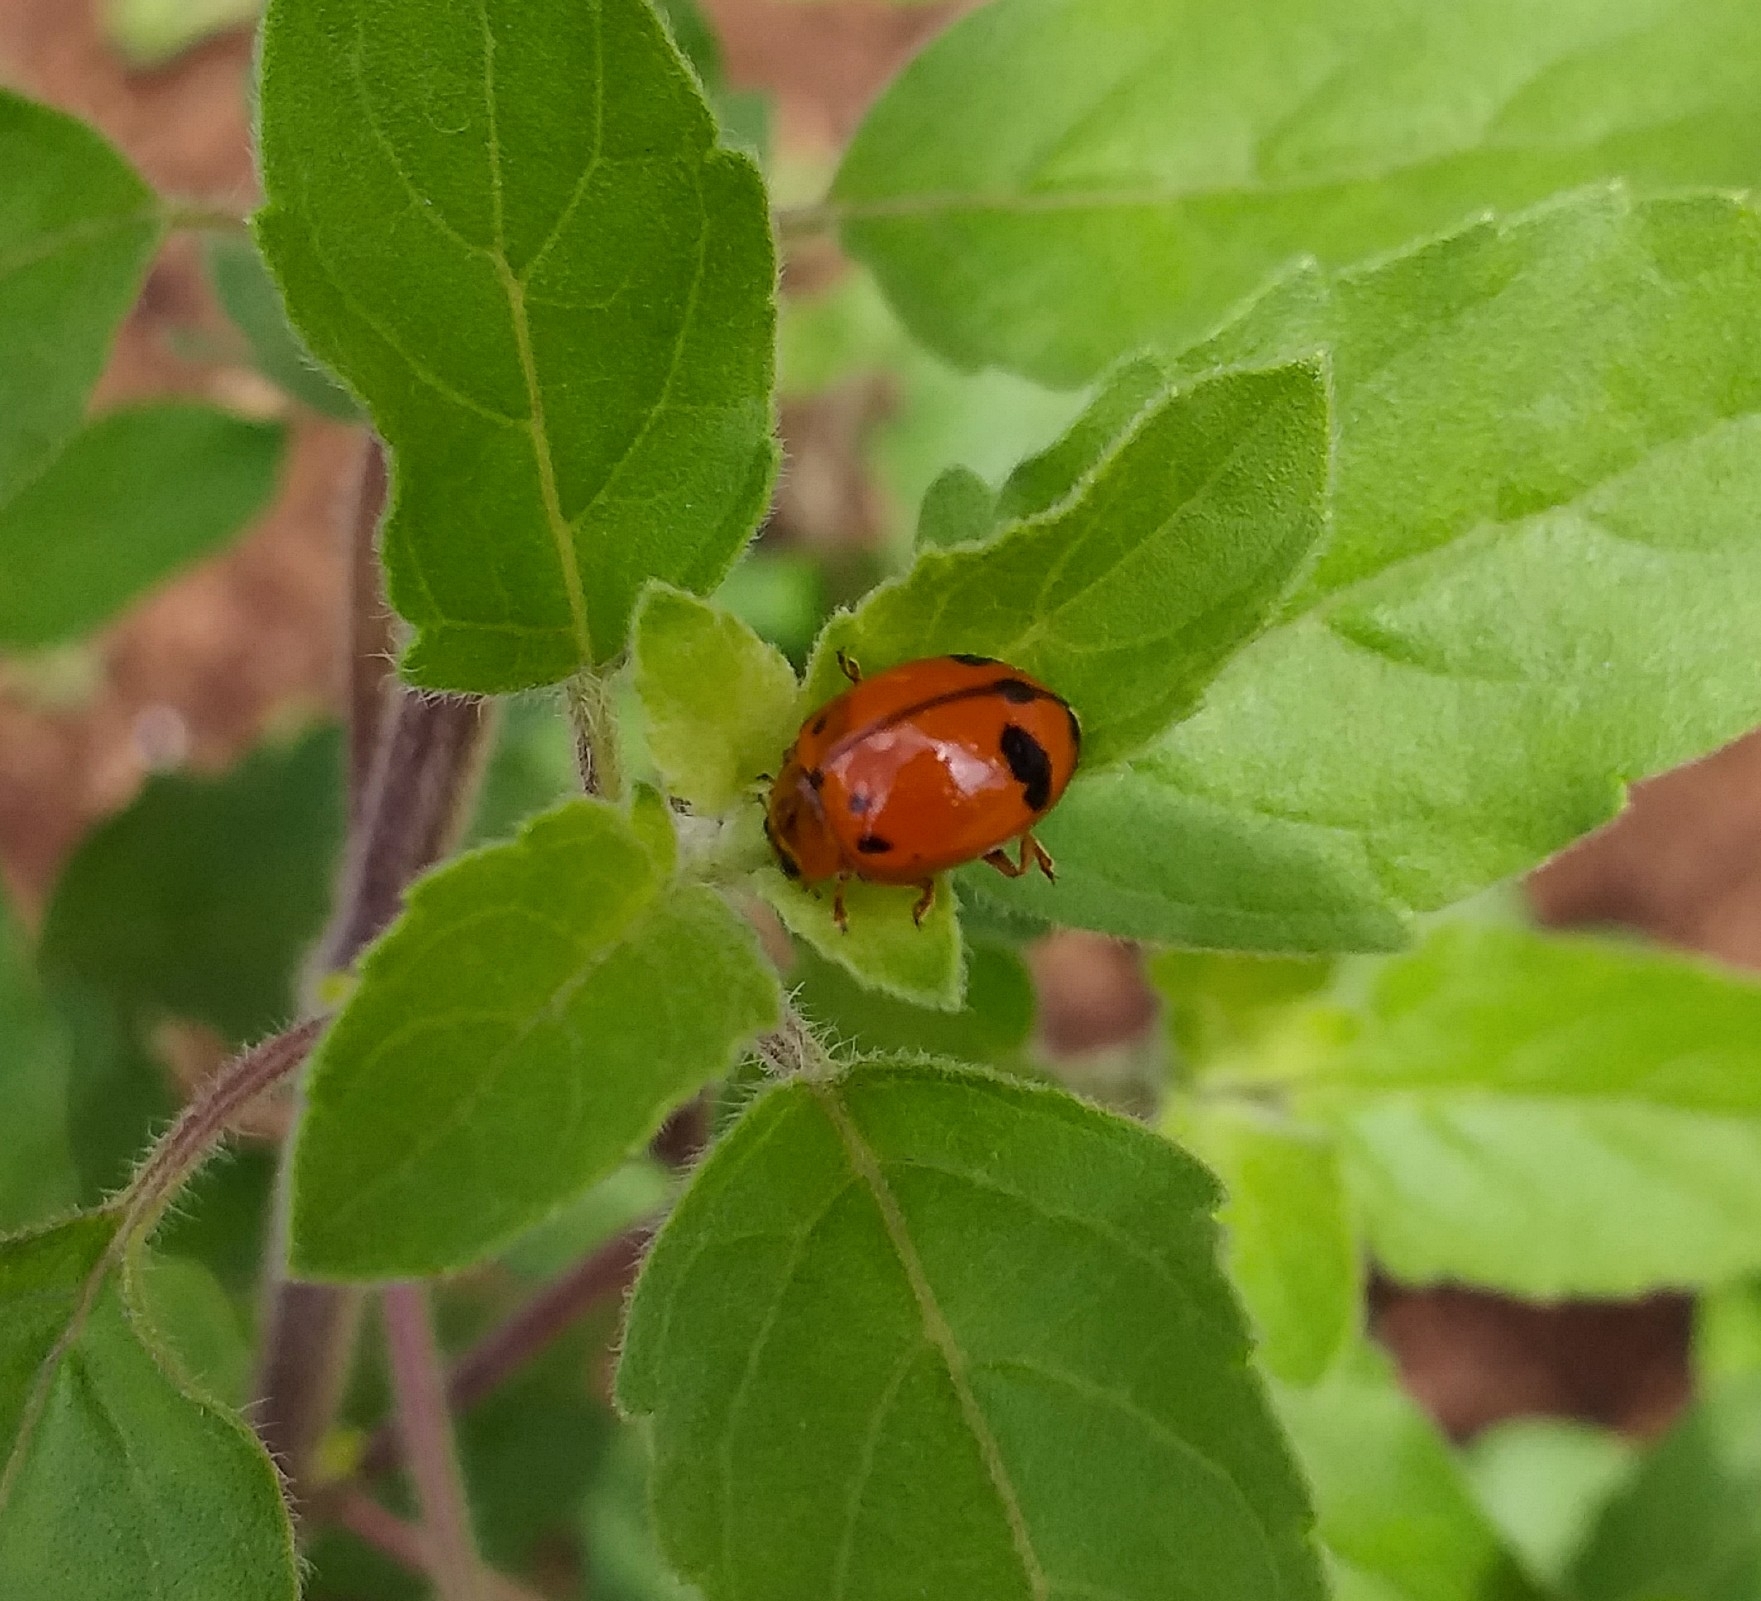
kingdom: Animalia
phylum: Arthropoda
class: Insecta
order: Coleoptera
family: Coccinellidae
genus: Harmonia
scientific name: Harmonia octomaculata
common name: Lady beetle
